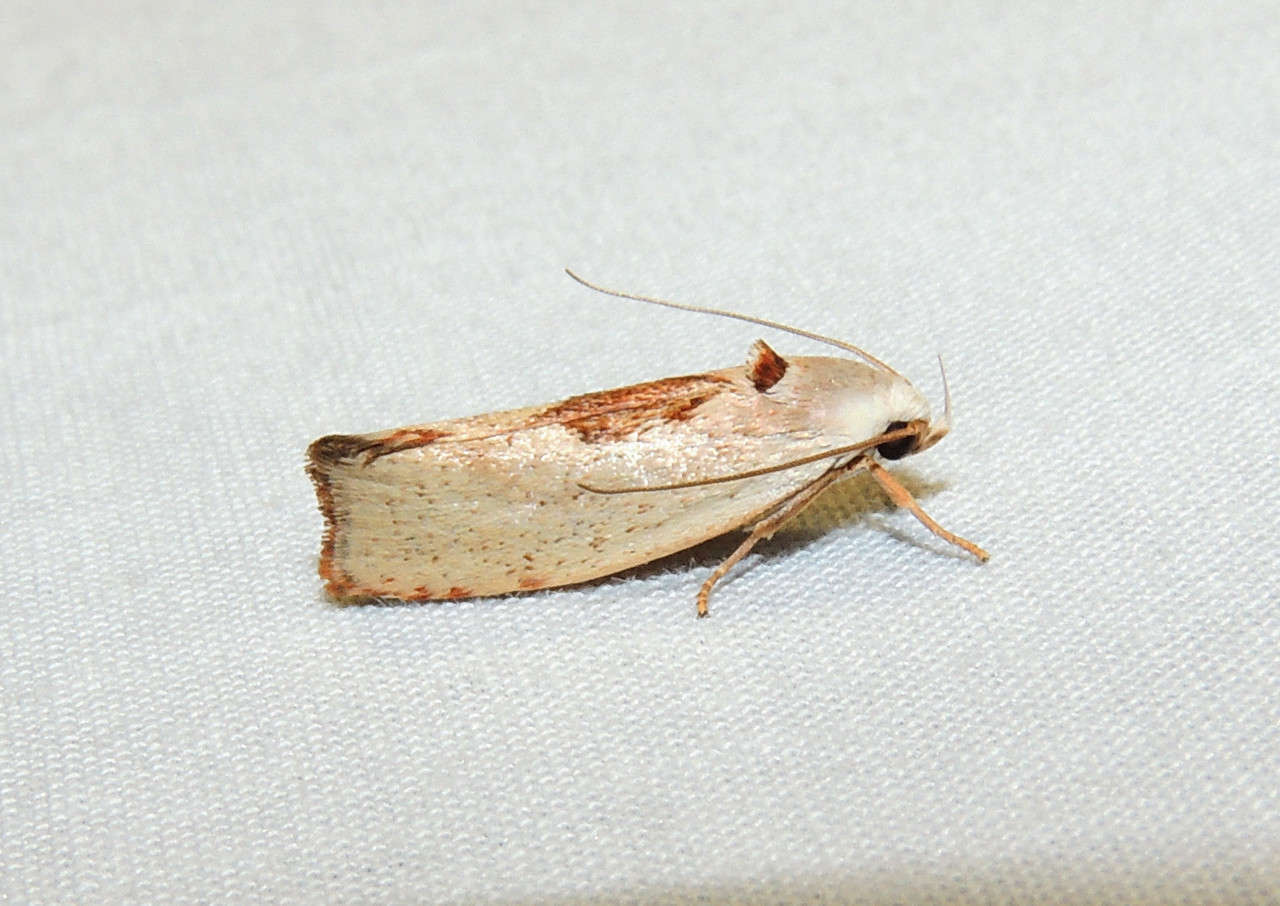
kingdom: Animalia
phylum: Arthropoda
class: Insecta
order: Lepidoptera
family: Xyloryctidae
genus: Tymbophora
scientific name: Tymbophora peltastis
